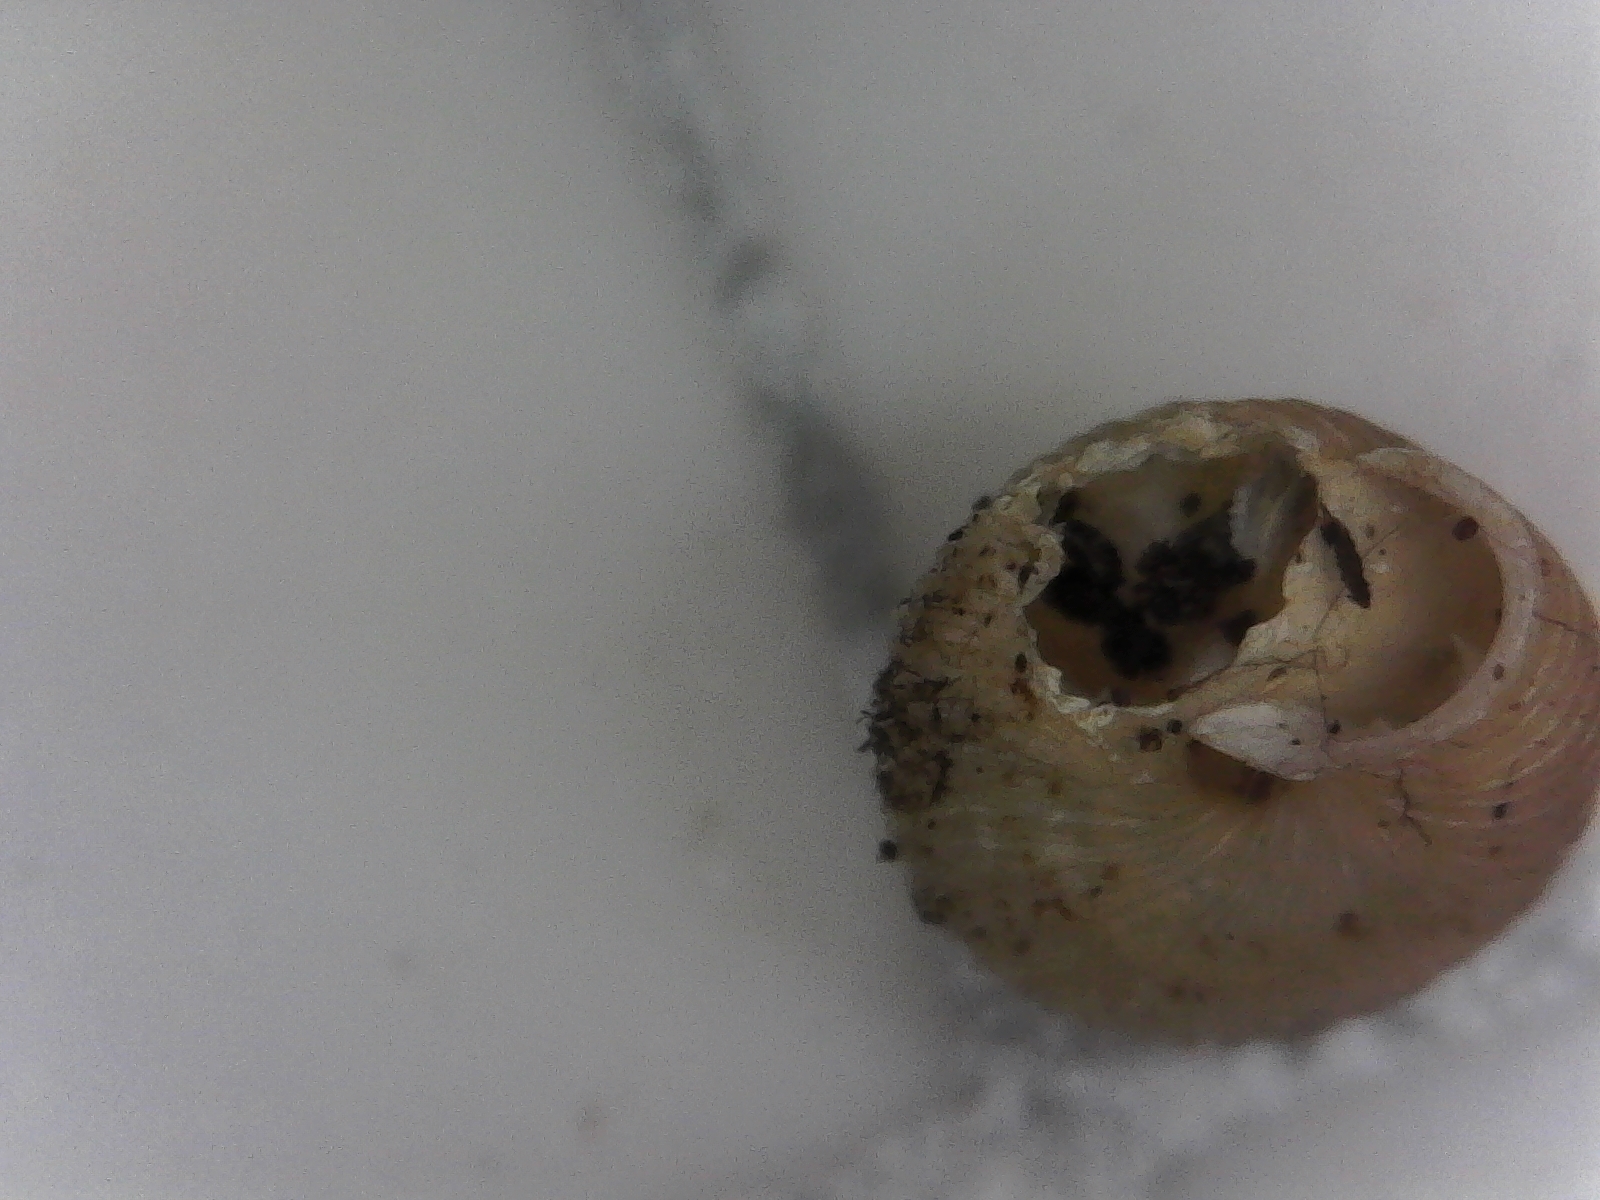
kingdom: Animalia
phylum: Mollusca
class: Gastropoda
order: Stylommatophora
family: Strobilopsidae
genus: Strobilops
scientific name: Strobilops labyrinthicus
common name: Maze pinecone
